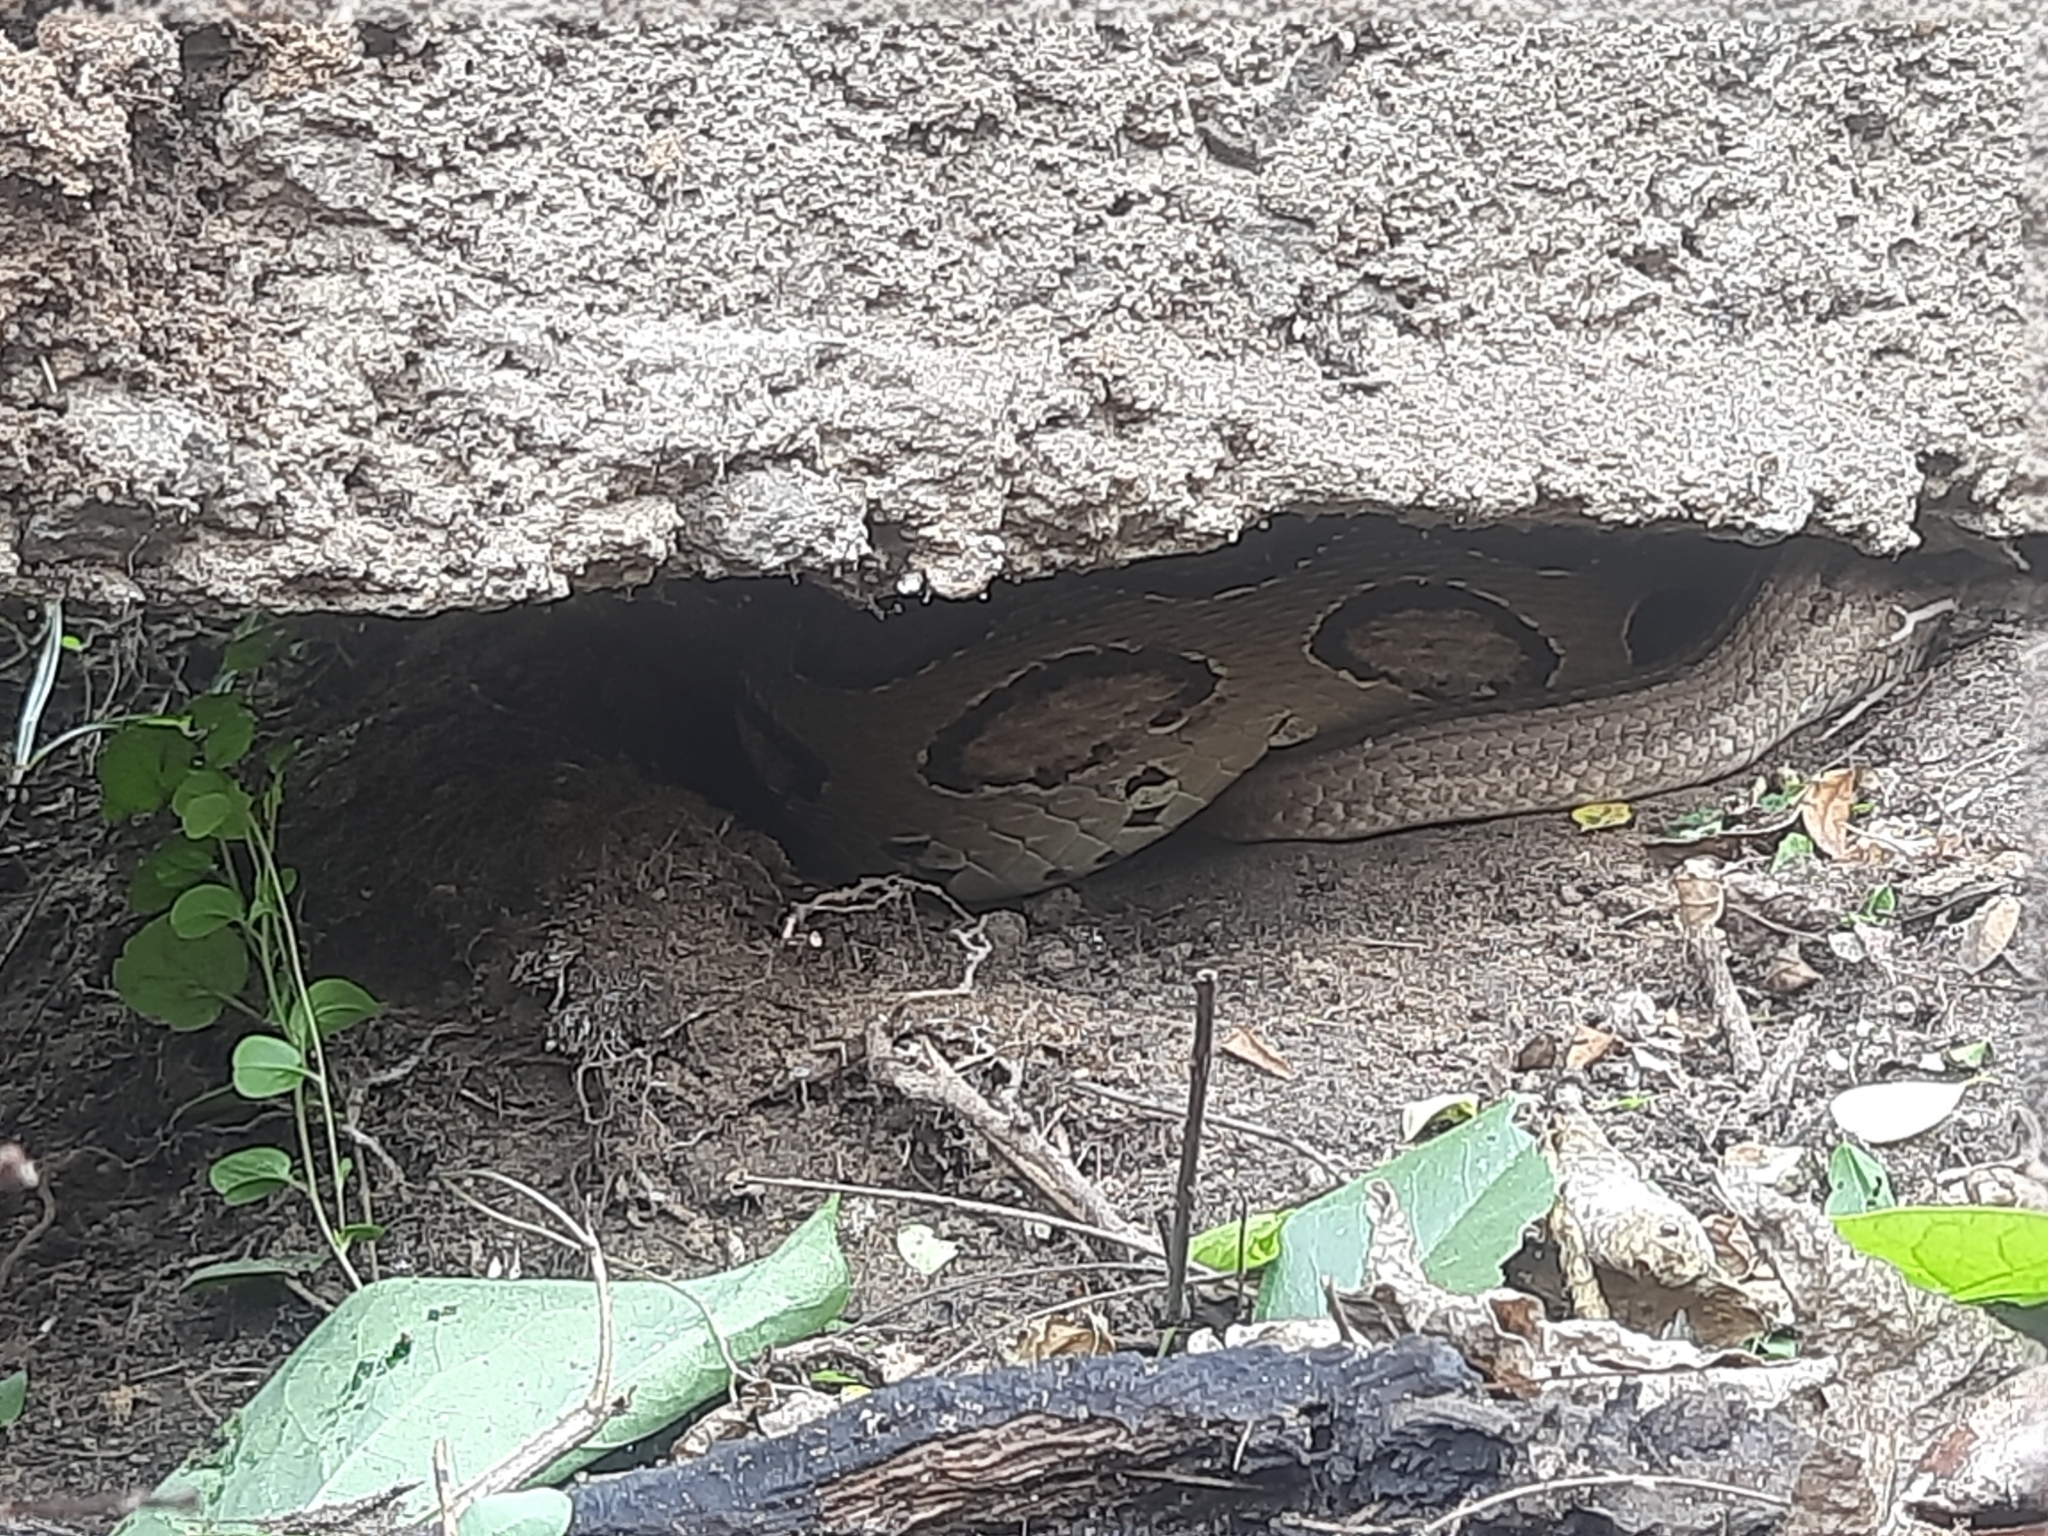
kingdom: Animalia
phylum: Chordata
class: Squamata
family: Viperidae
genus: Daboia
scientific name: Daboia russelii
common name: Western russel’s viper
